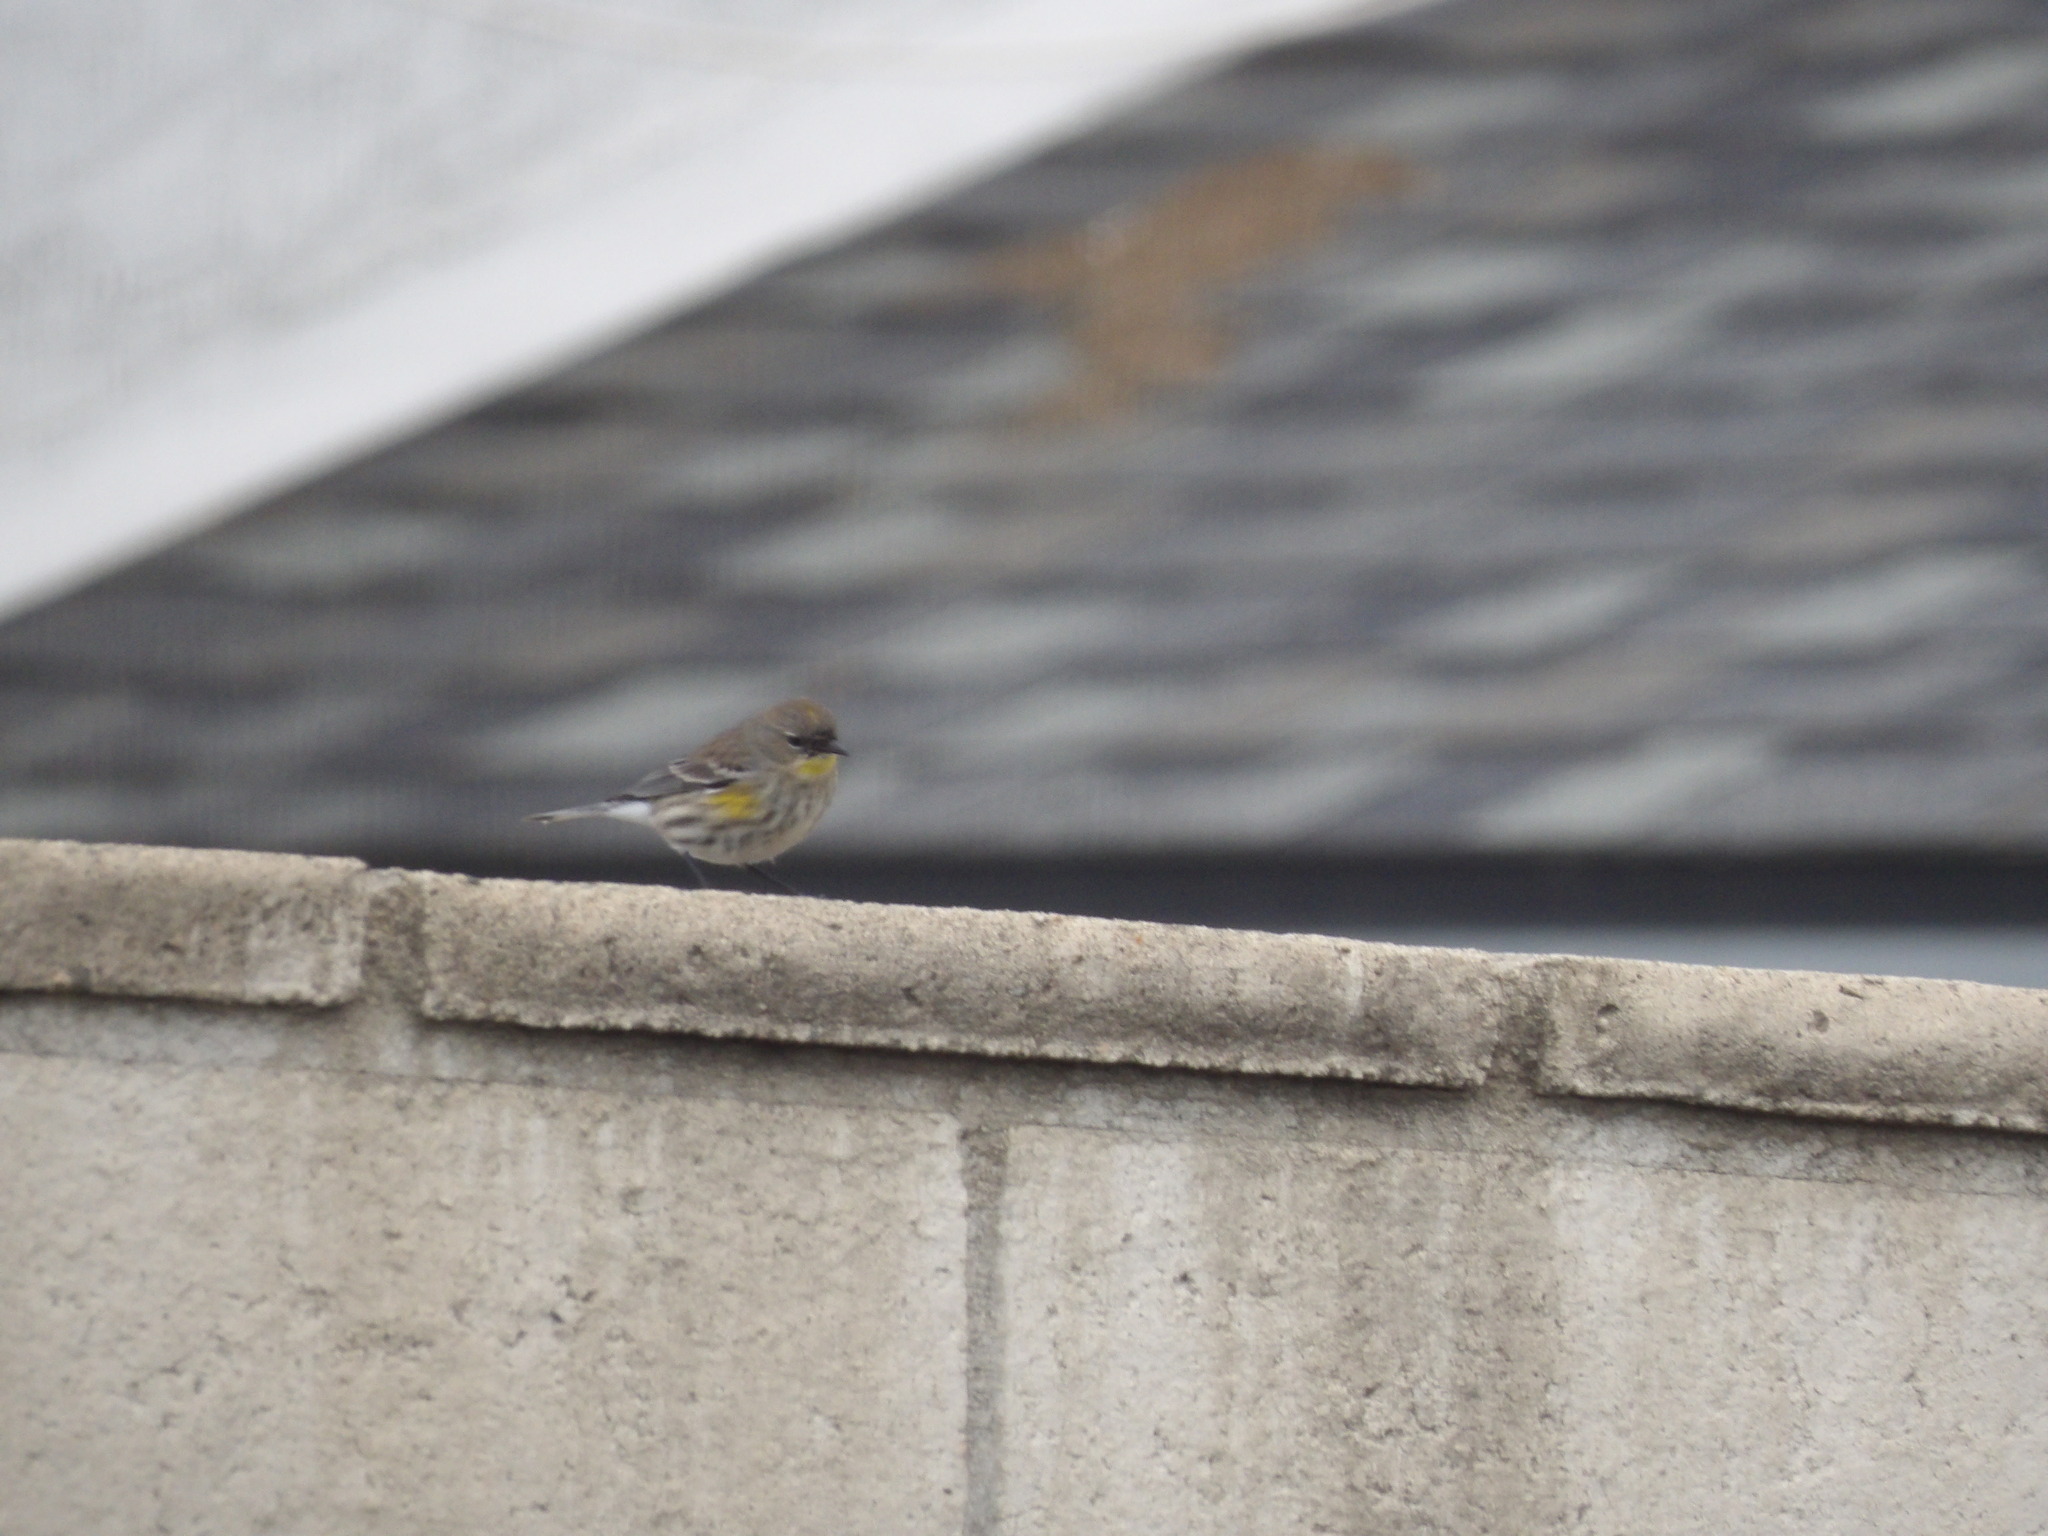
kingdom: Animalia
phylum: Chordata
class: Aves
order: Passeriformes
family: Parulidae
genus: Setophaga
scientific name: Setophaga auduboni
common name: Audubon's warbler
